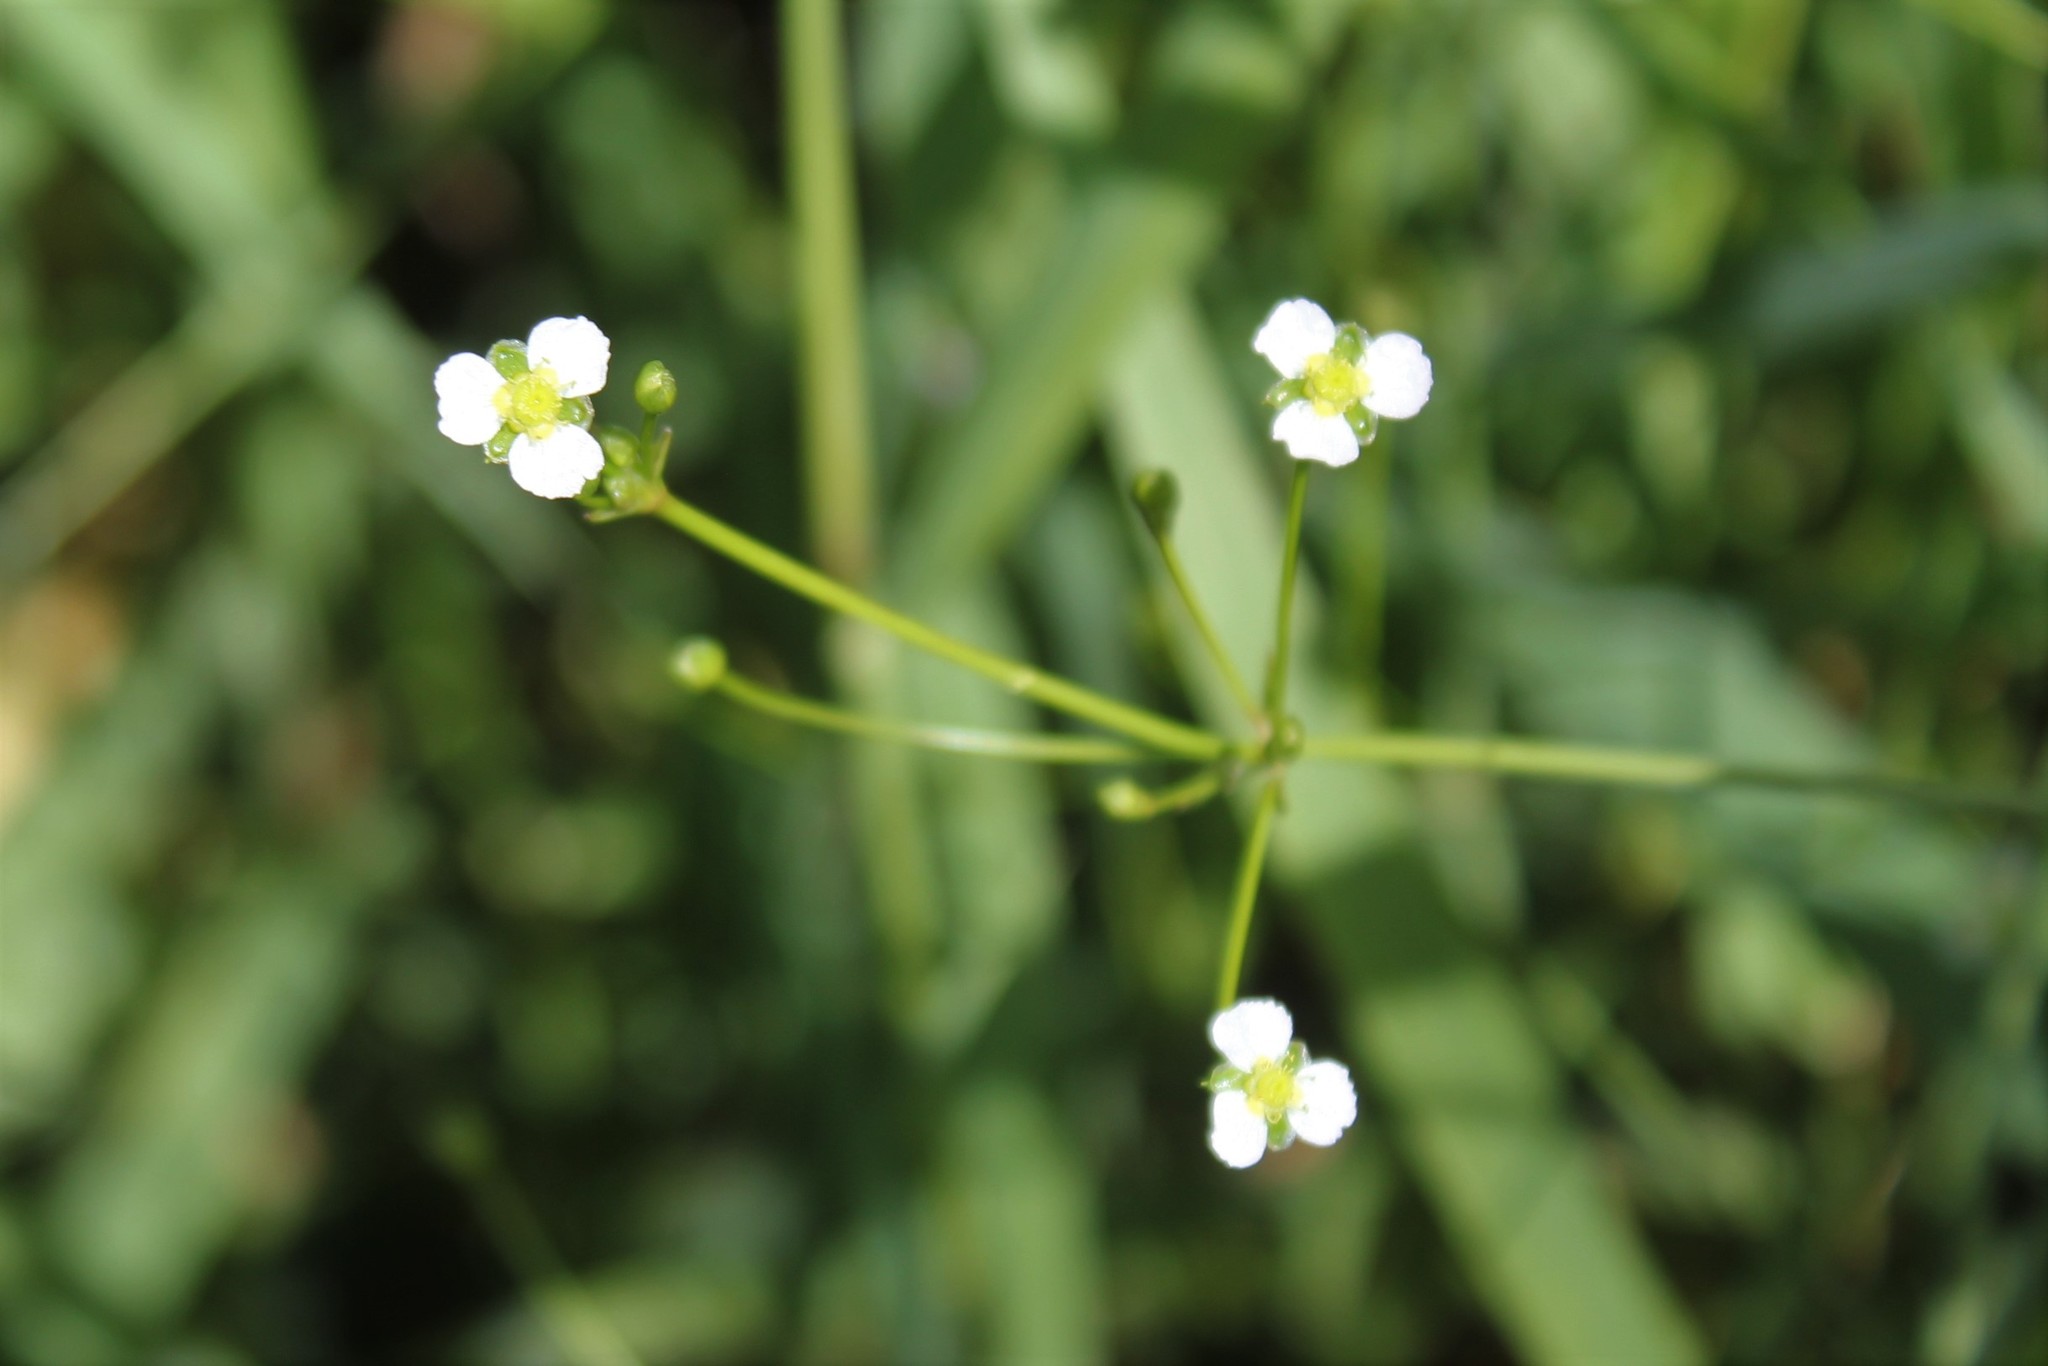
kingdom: Plantae
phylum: Tracheophyta
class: Liliopsida
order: Alismatales
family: Alismataceae
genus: Alisma
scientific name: Alisma triviale
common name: Northern water-plantain
